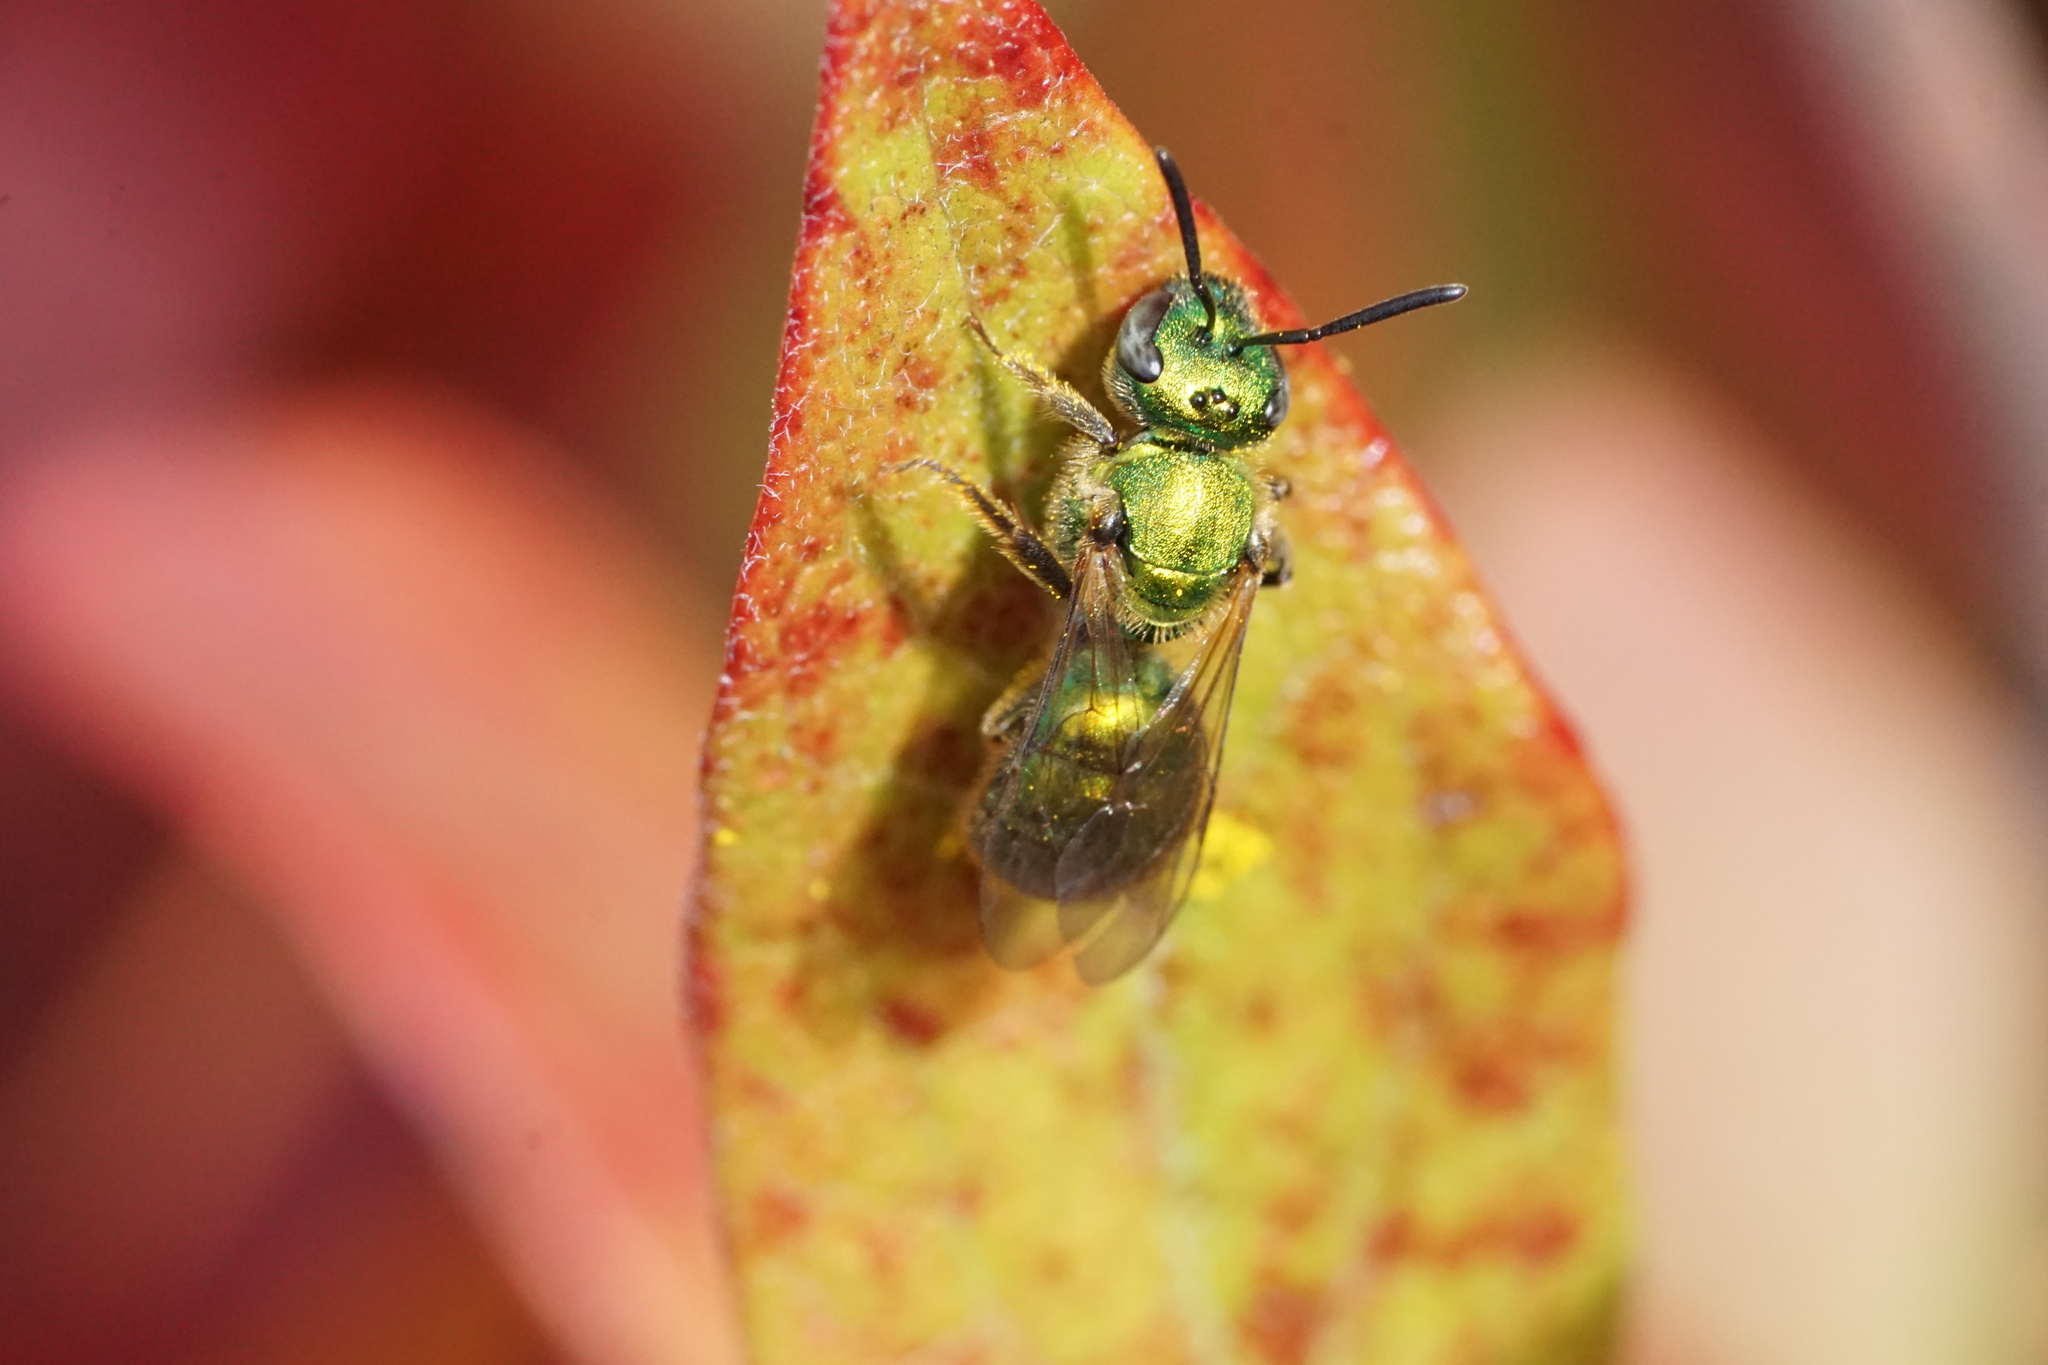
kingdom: Animalia
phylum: Arthropoda
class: Insecta
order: Hymenoptera
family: Halictidae
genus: Augochlora
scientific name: Augochlora pura
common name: Pure green sweat bee
